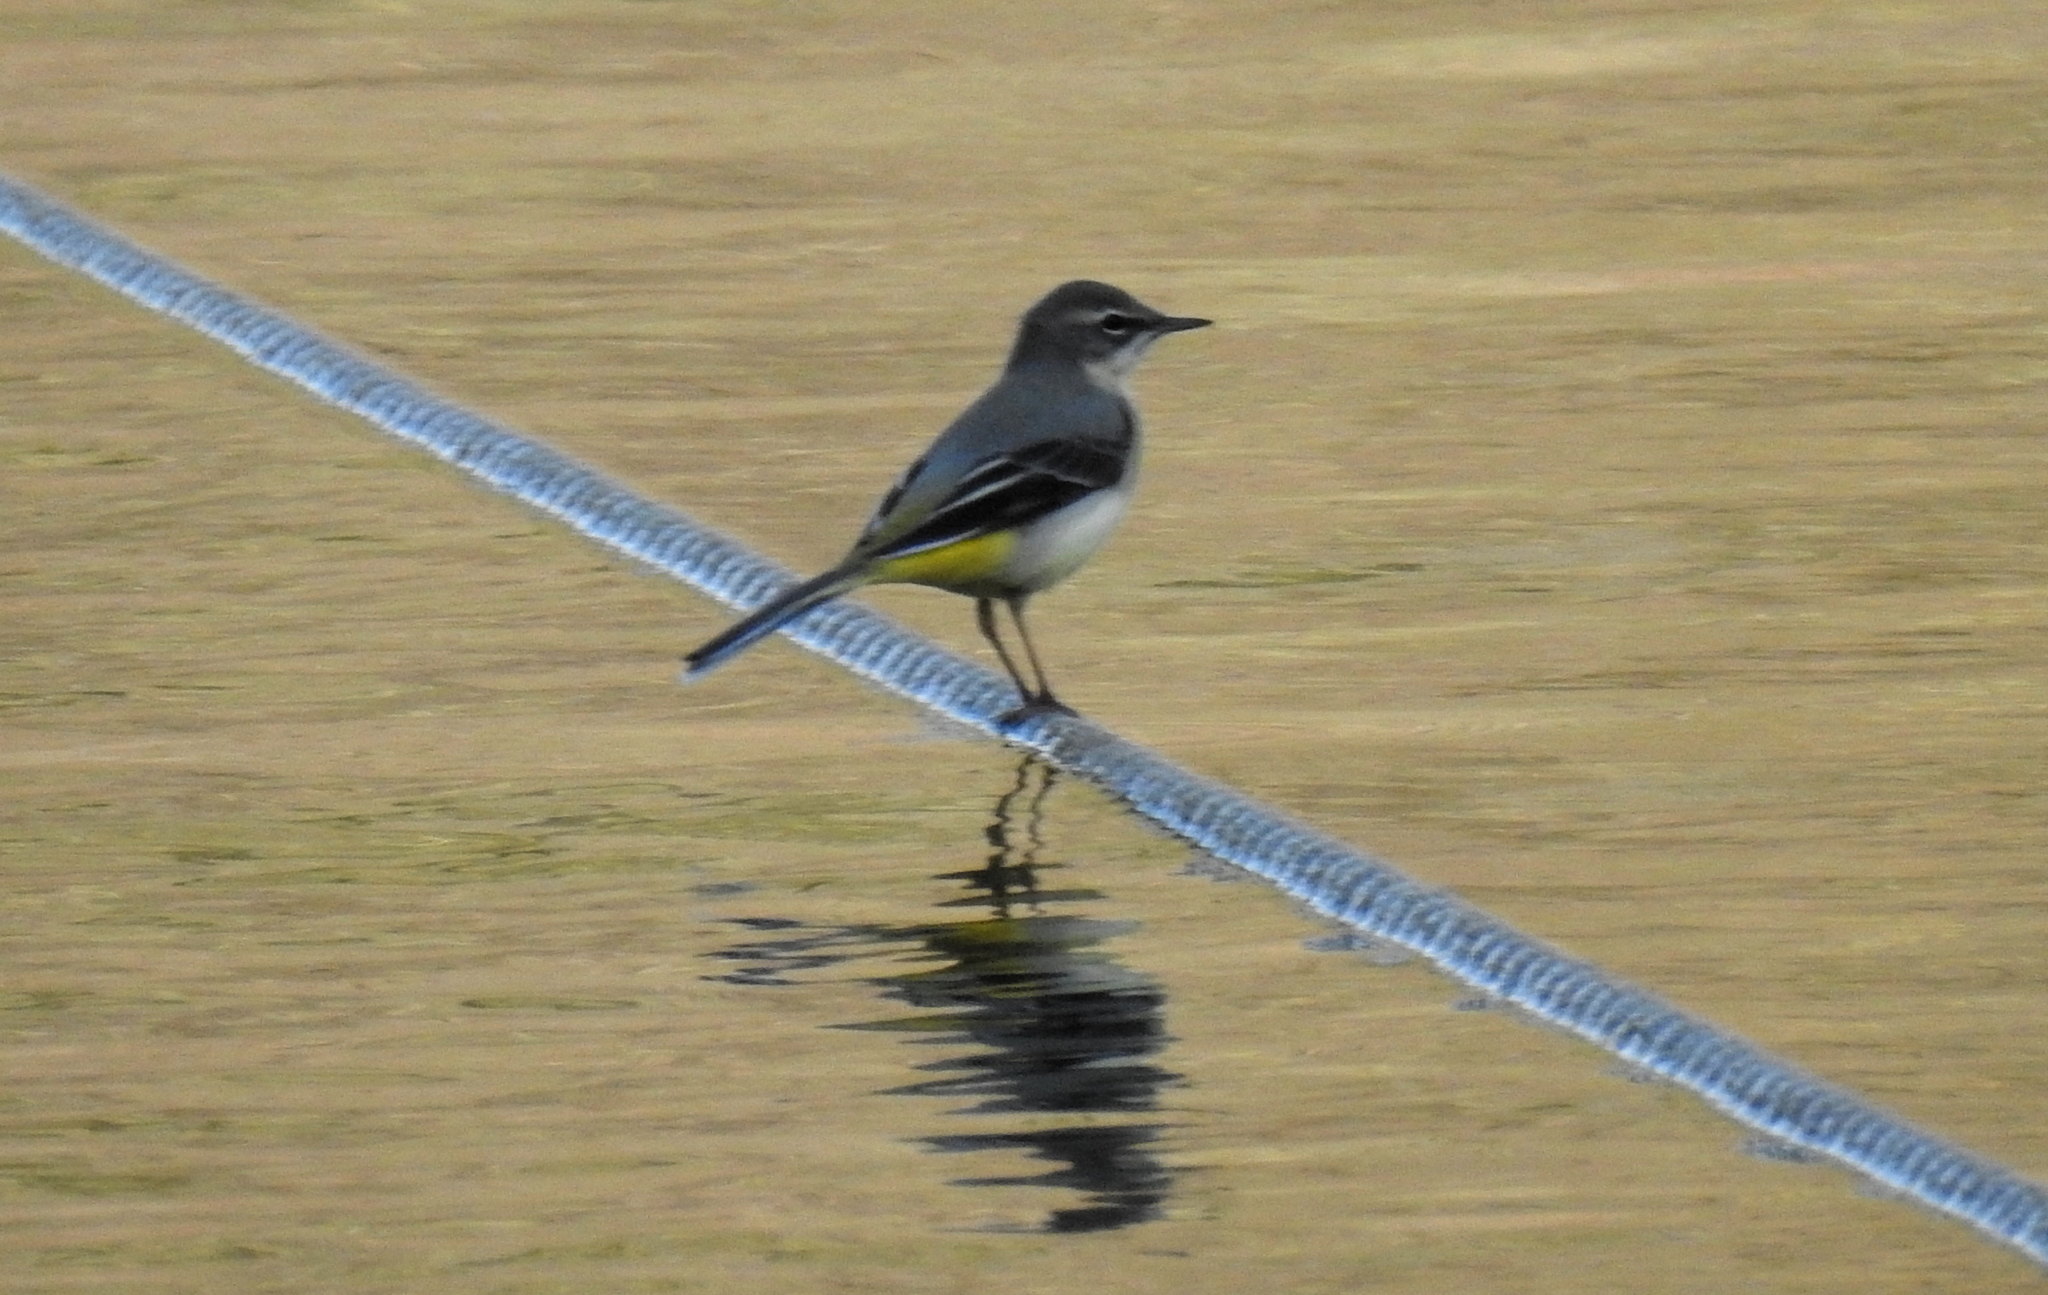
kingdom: Animalia
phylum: Chordata
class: Aves
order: Passeriformes
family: Motacillidae
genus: Motacilla
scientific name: Motacilla cinerea
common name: Grey wagtail
